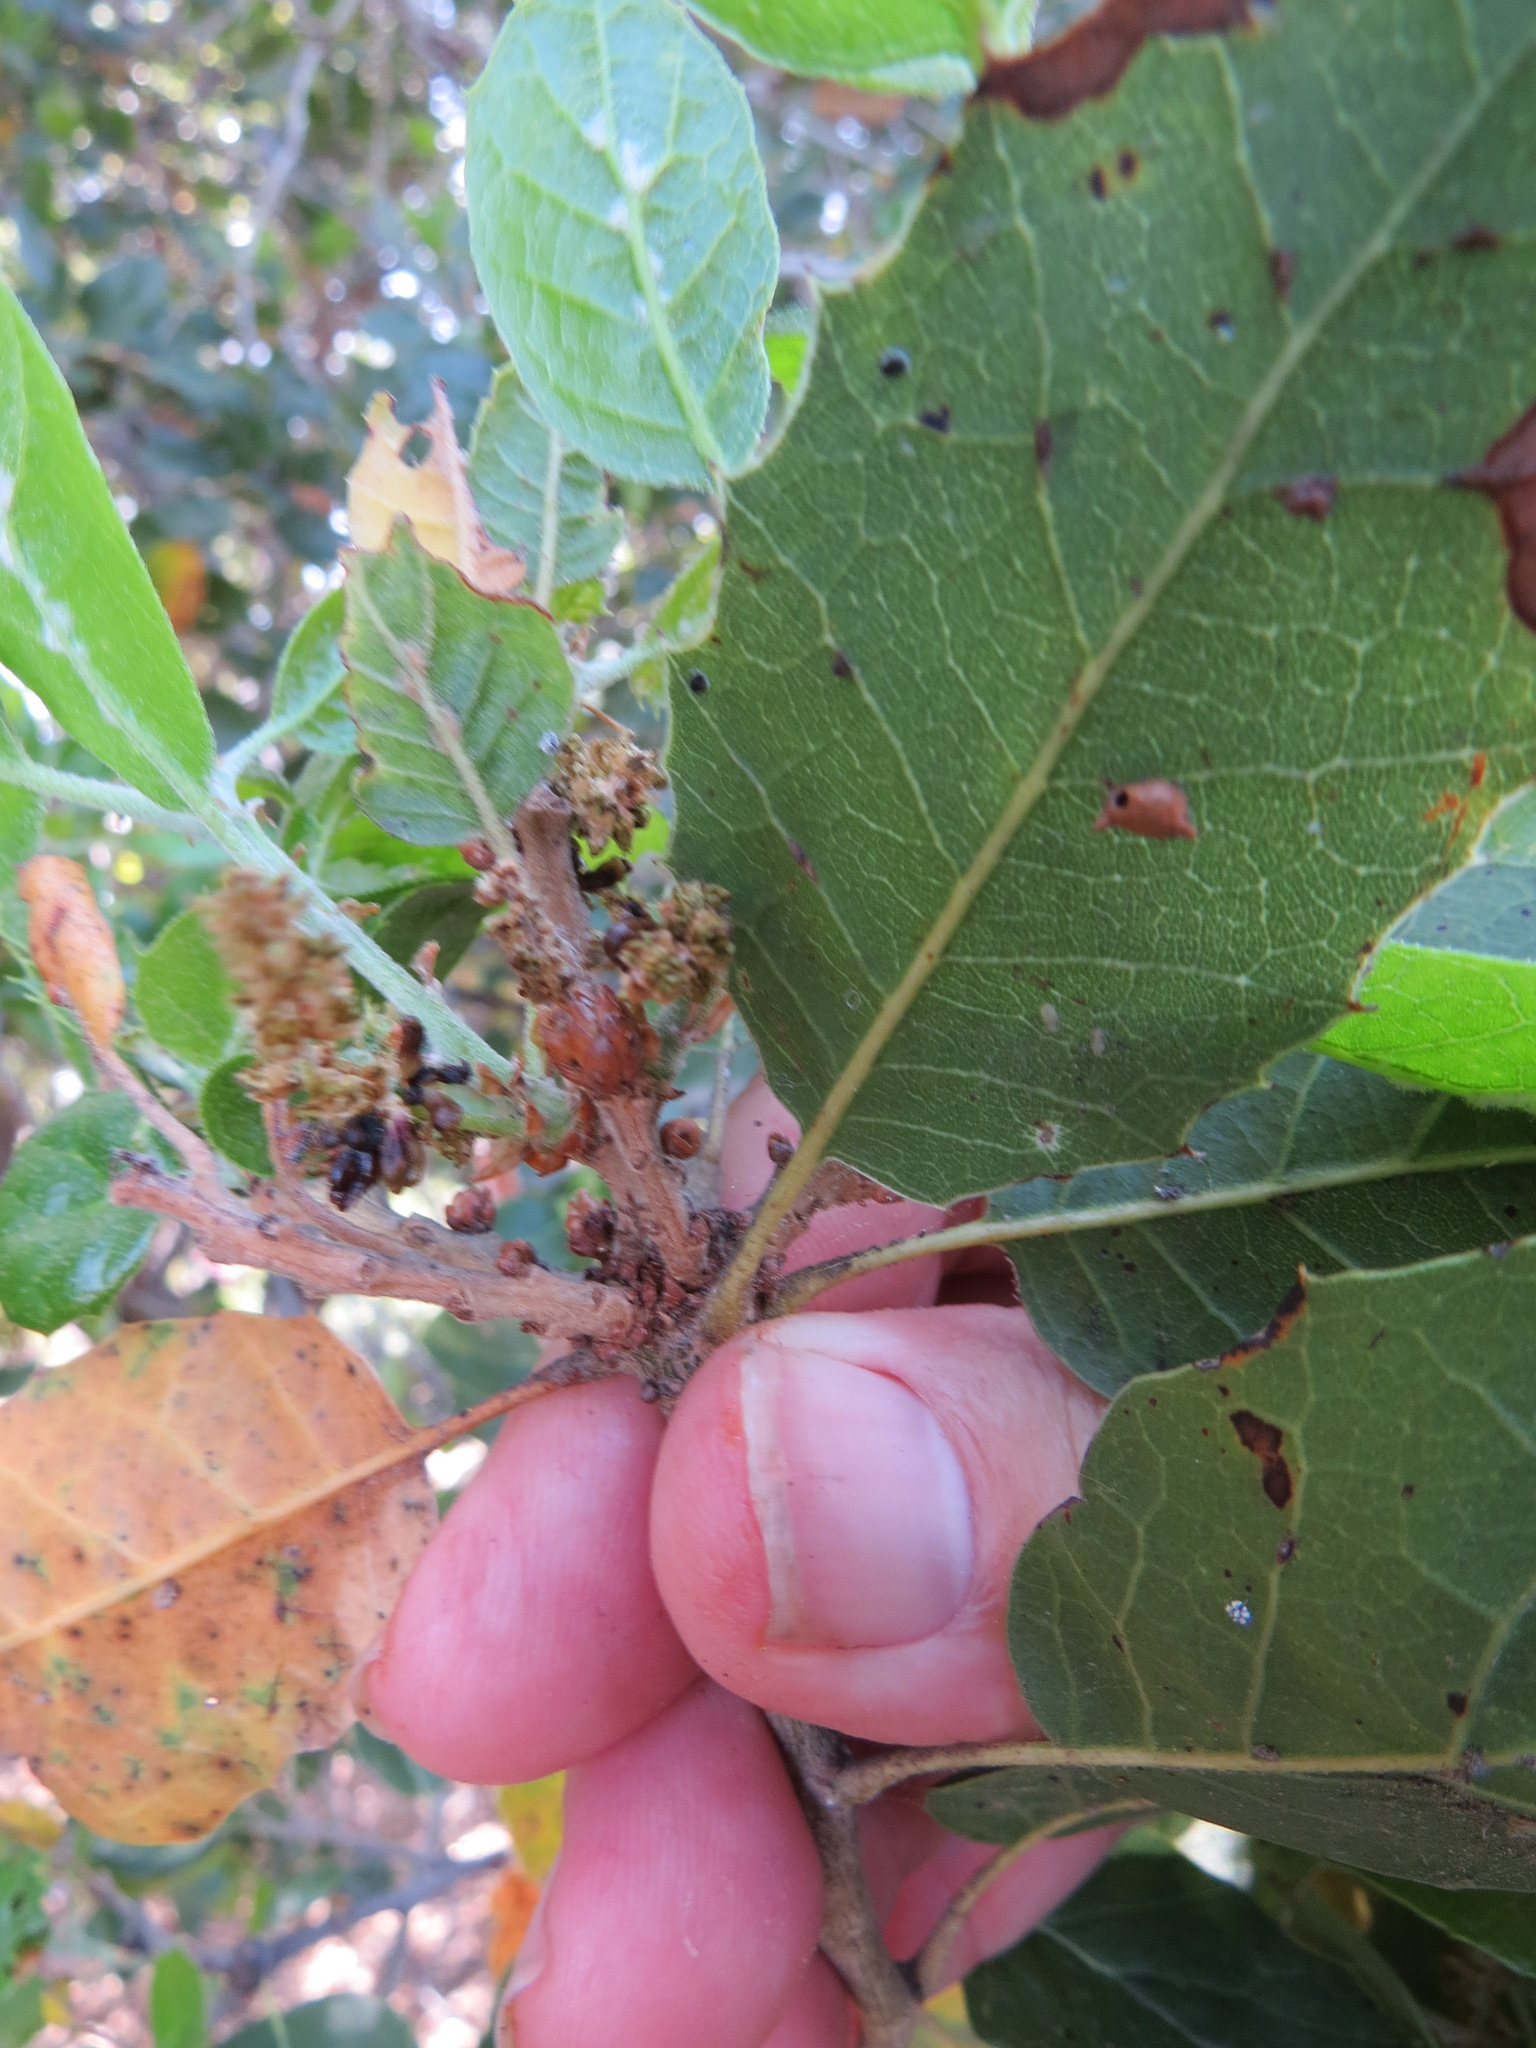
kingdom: Animalia
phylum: Arthropoda
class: Insecta
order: Hymenoptera
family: Cynipidae
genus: Dryocosmus
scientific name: Dryocosmus
